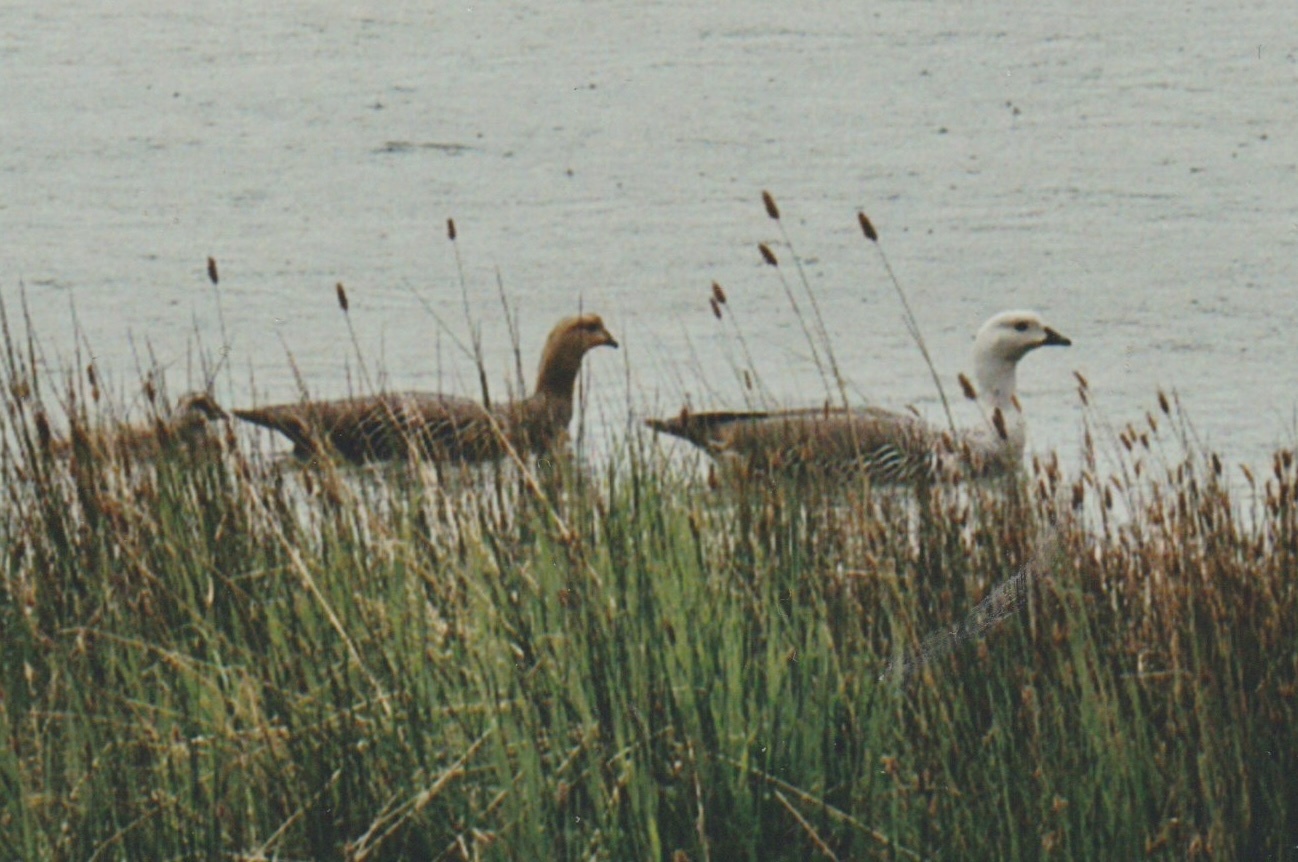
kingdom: Animalia
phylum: Chordata
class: Aves
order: Anseriformes
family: Anatidae
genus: Chloephaga
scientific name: Chloephaga picta
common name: Upland goose
